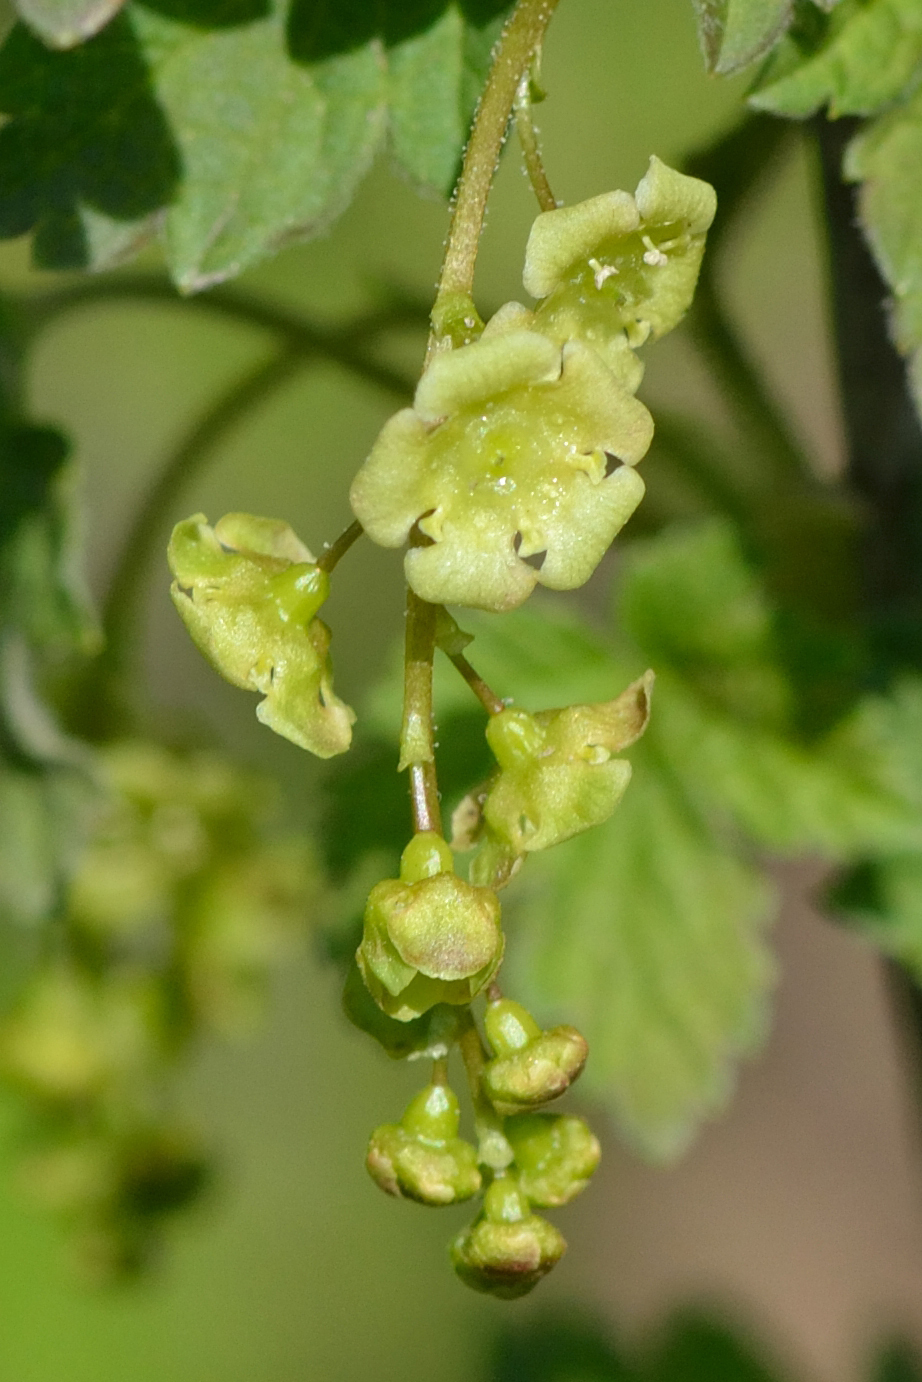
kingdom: Plantae
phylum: Tracheophyta
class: Magnoliopsida
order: Saxifragales
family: Grossulariaceae
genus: Ribes
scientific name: Ribes nigrum
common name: Black currant
